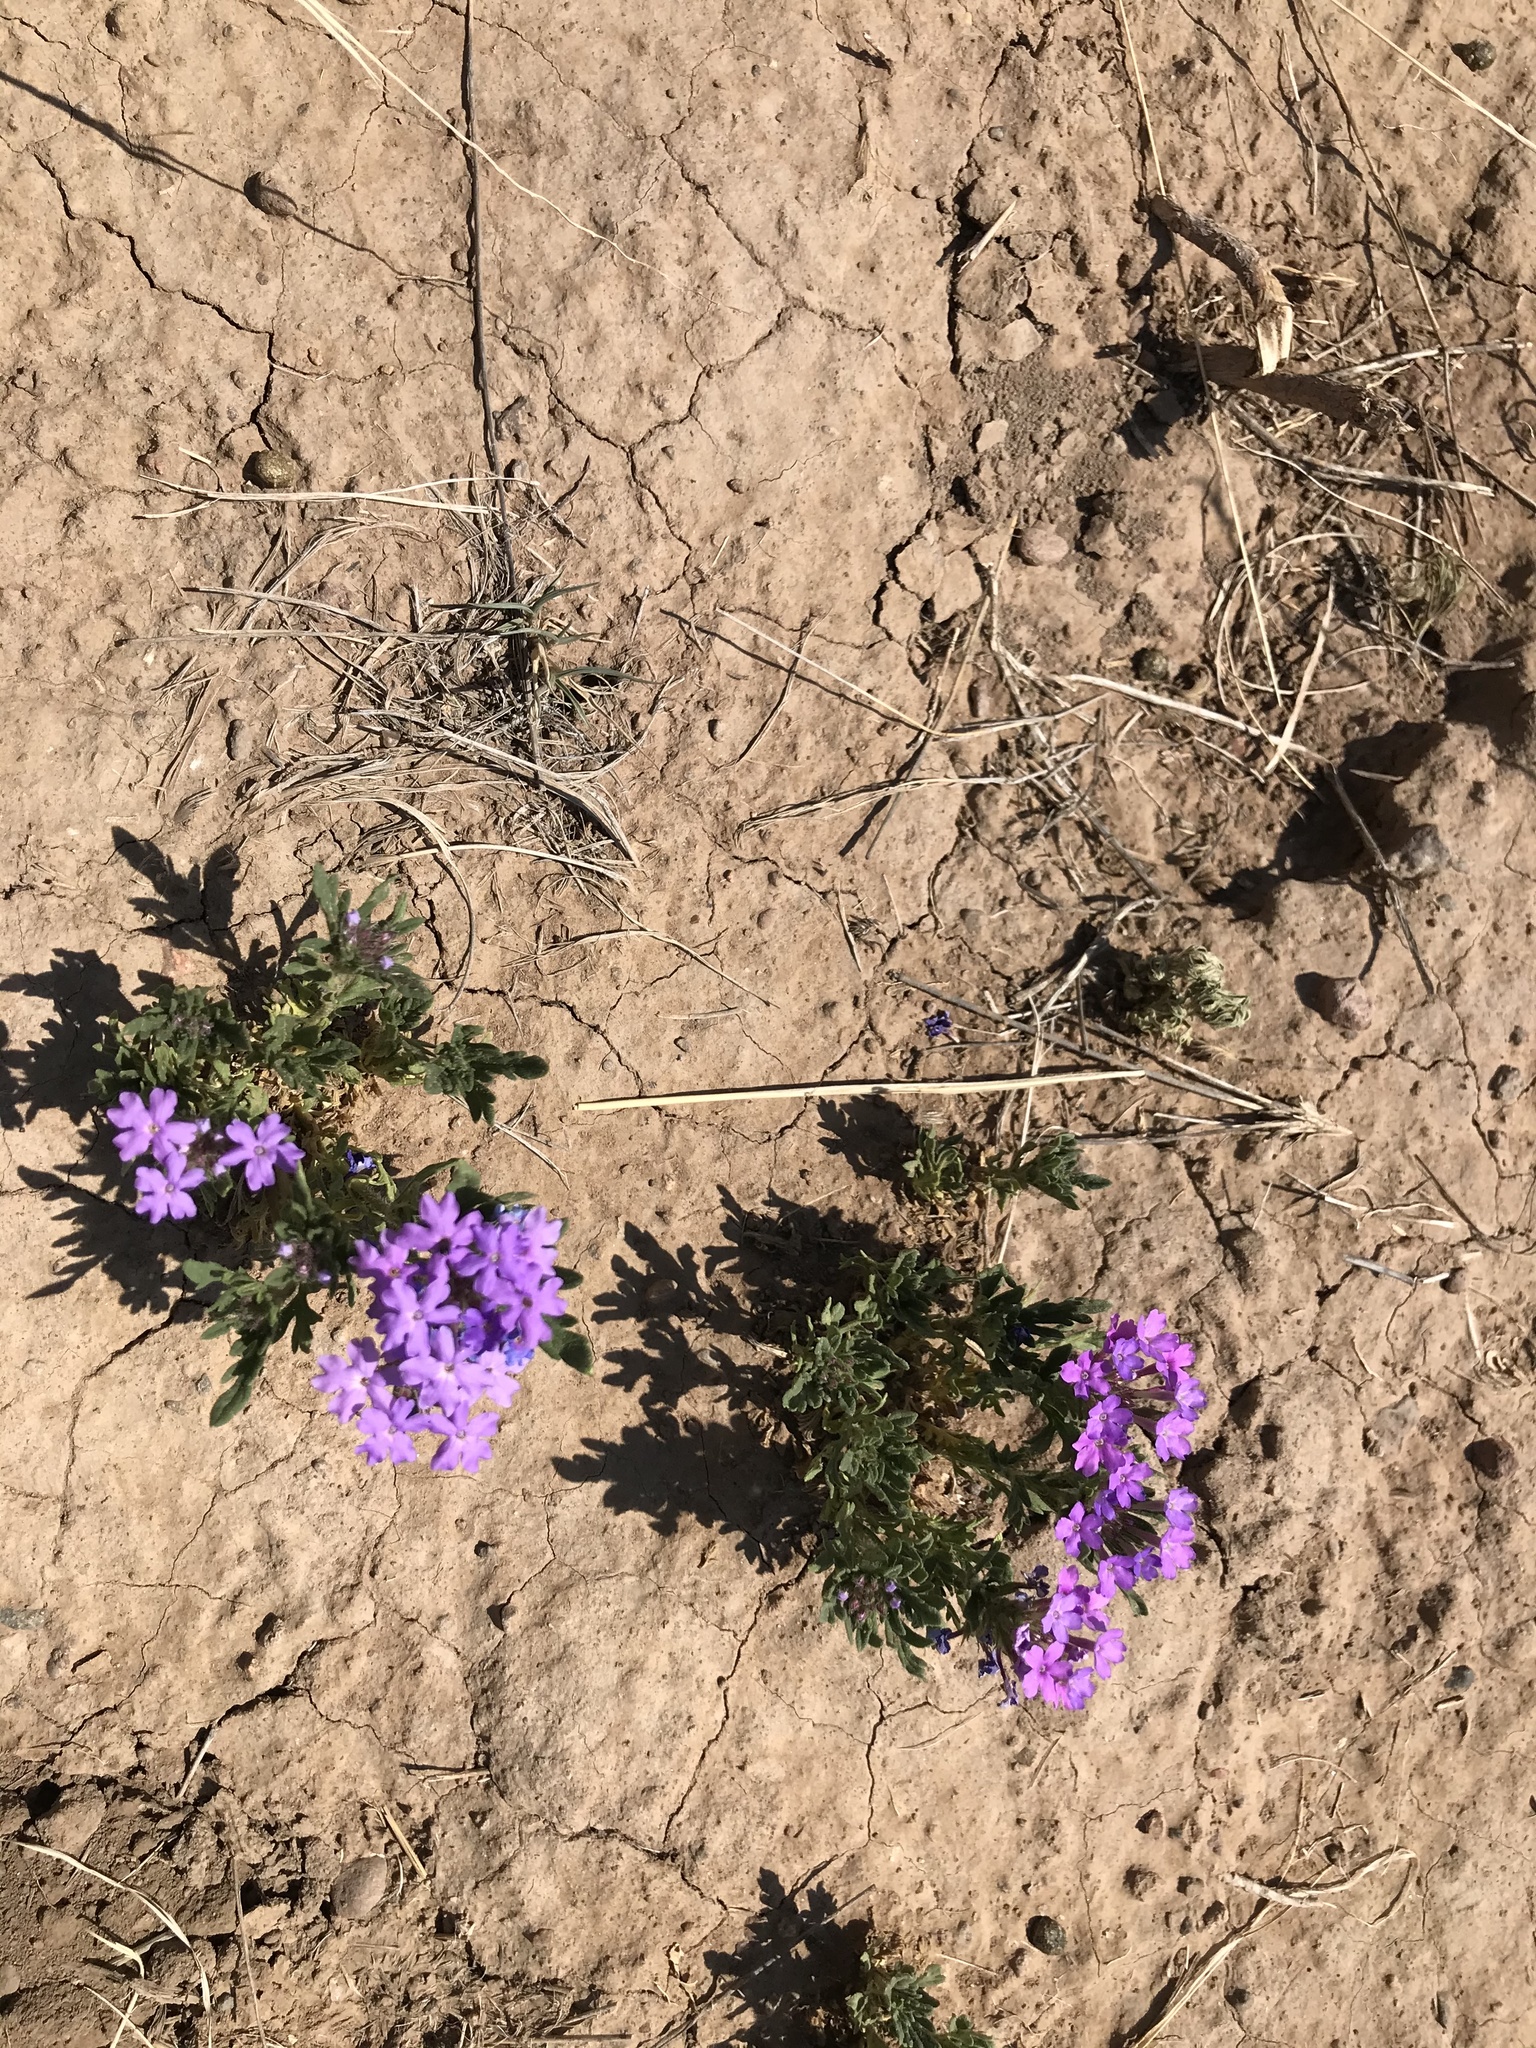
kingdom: Plantae
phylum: Tracheophyta
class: Magnoliopsida
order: Lamiales
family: Verbenaceae
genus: Verbena
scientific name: Verbena bipinnatifida
